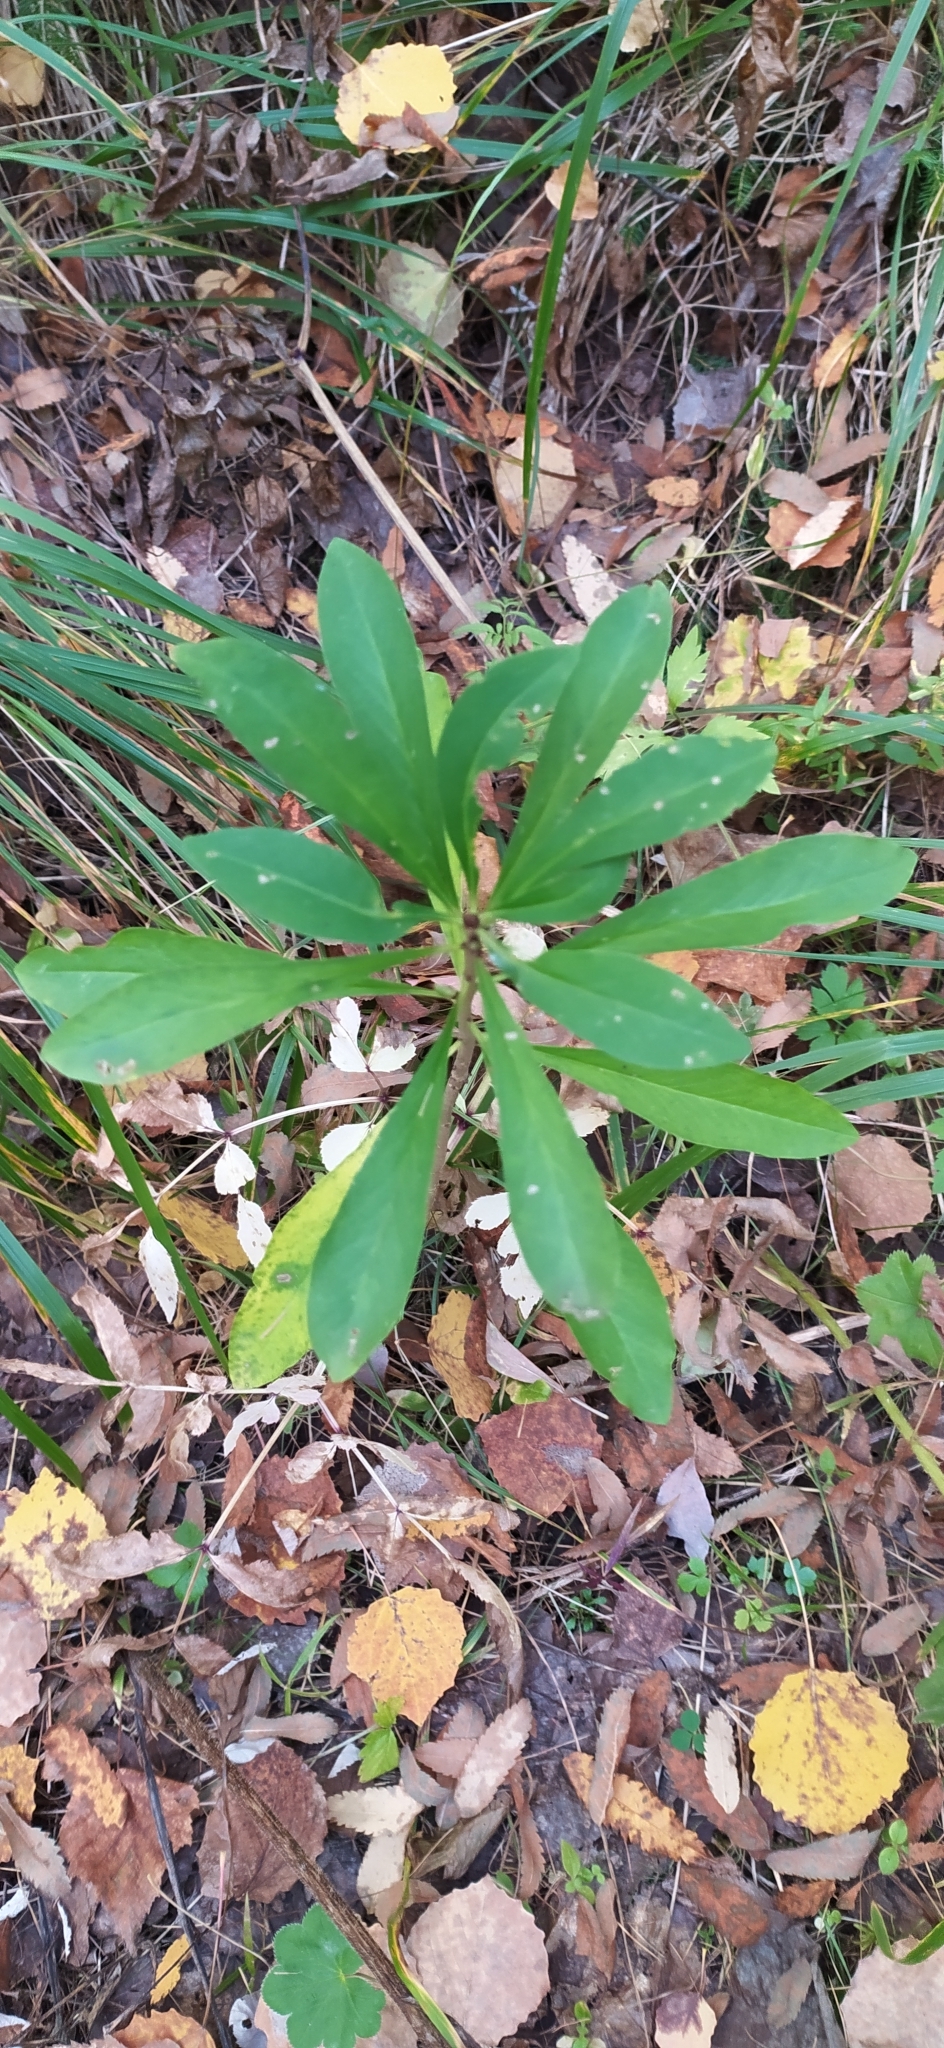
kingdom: Plantae
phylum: Tracheophyta
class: Magnoliopsida
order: Malvales
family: Thymelaeaceae
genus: Daphne
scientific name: Daphne mezereum
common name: Mezereon
